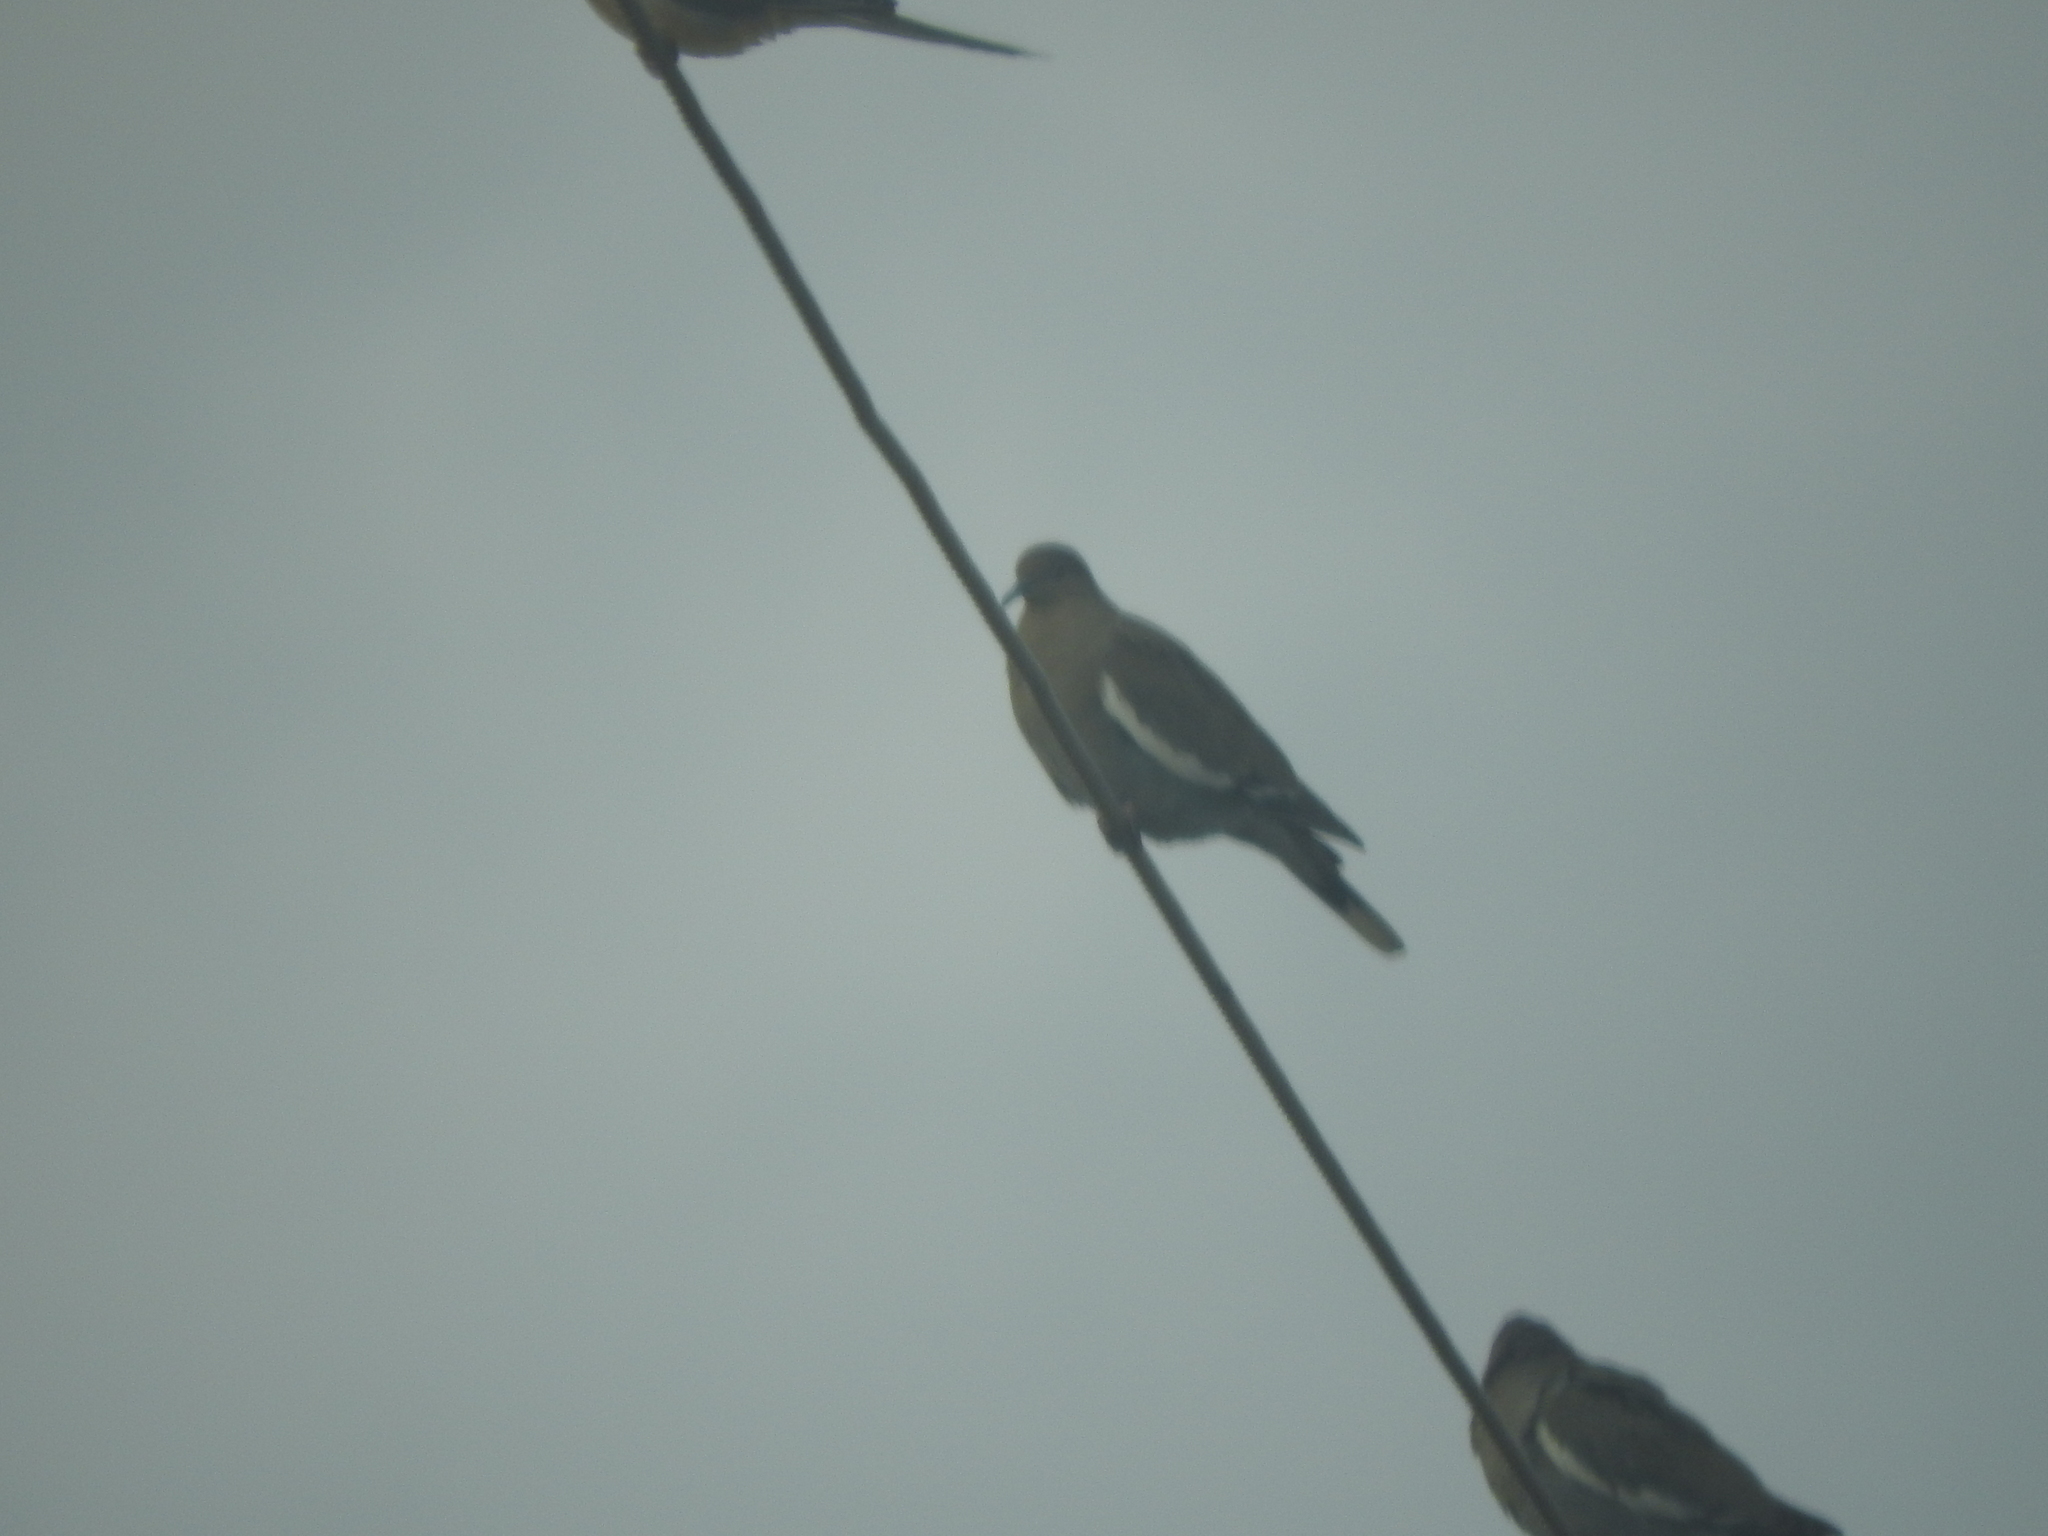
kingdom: Animalia
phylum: Chordata
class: Aves
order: Columbiformes
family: Columbidae
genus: Zenaida
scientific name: Zenaida asiatica
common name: White-winged dove
